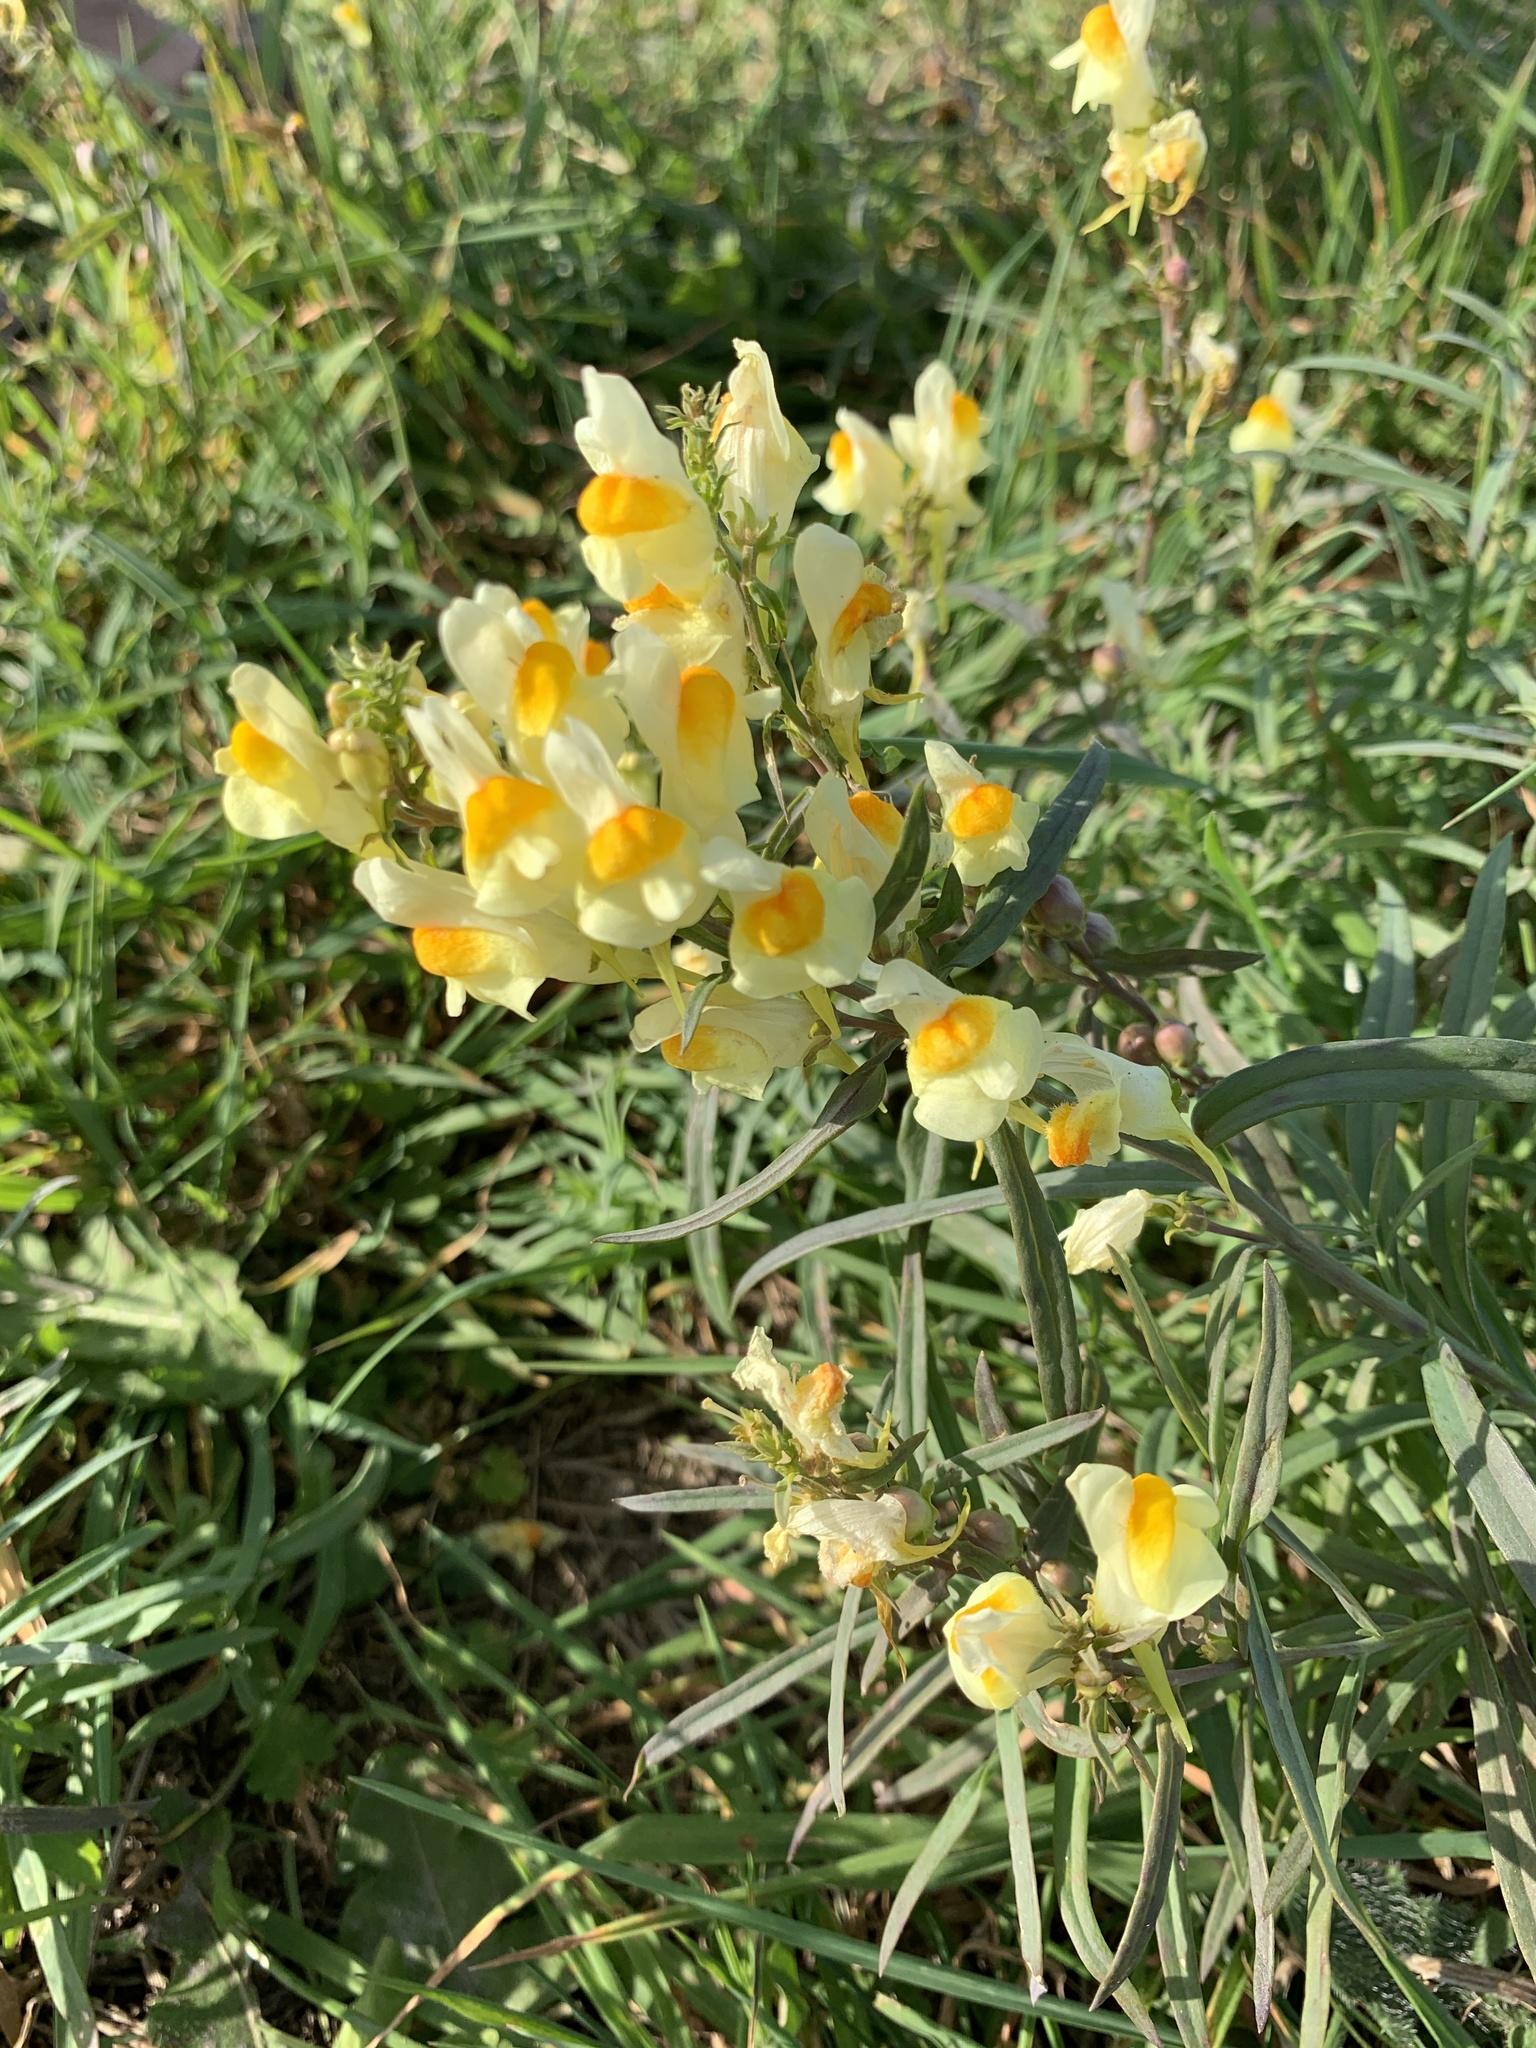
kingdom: Plantae
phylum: Tracheophyta
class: Magnoliopsida
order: Lamiales
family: Plantaginaceae
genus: Linaria
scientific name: Linaria vulgaris
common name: Butter and eggs
